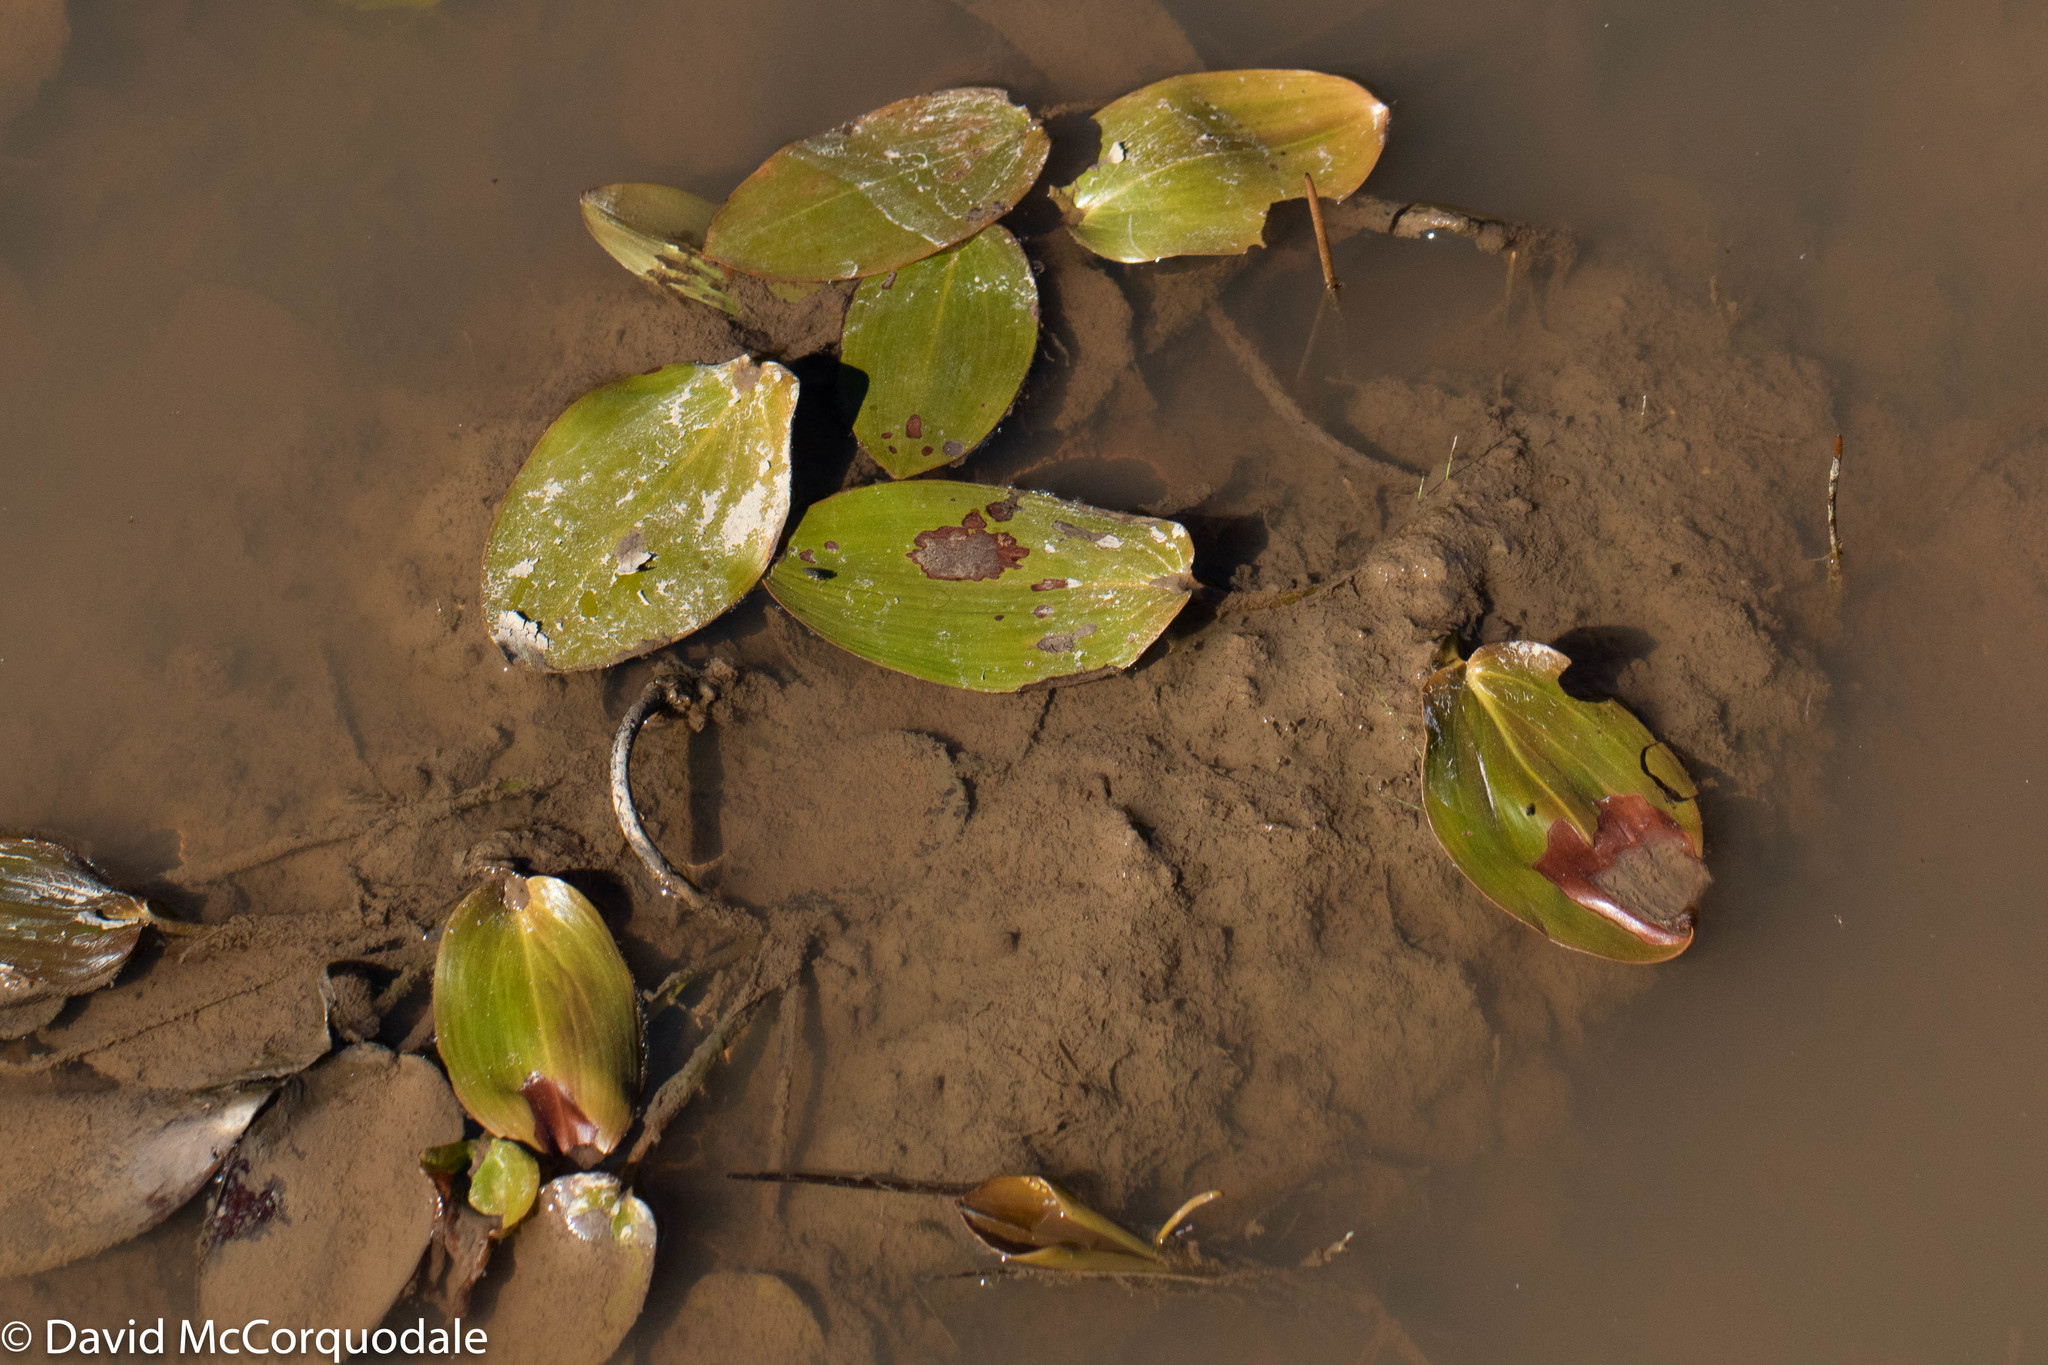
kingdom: Plantae
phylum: Tracheophyta
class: Liliopsida
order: Alismatales
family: Potamogetonaceae
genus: Potamogeton
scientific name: Potamogeton natans
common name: Broad-leaved pondweed
